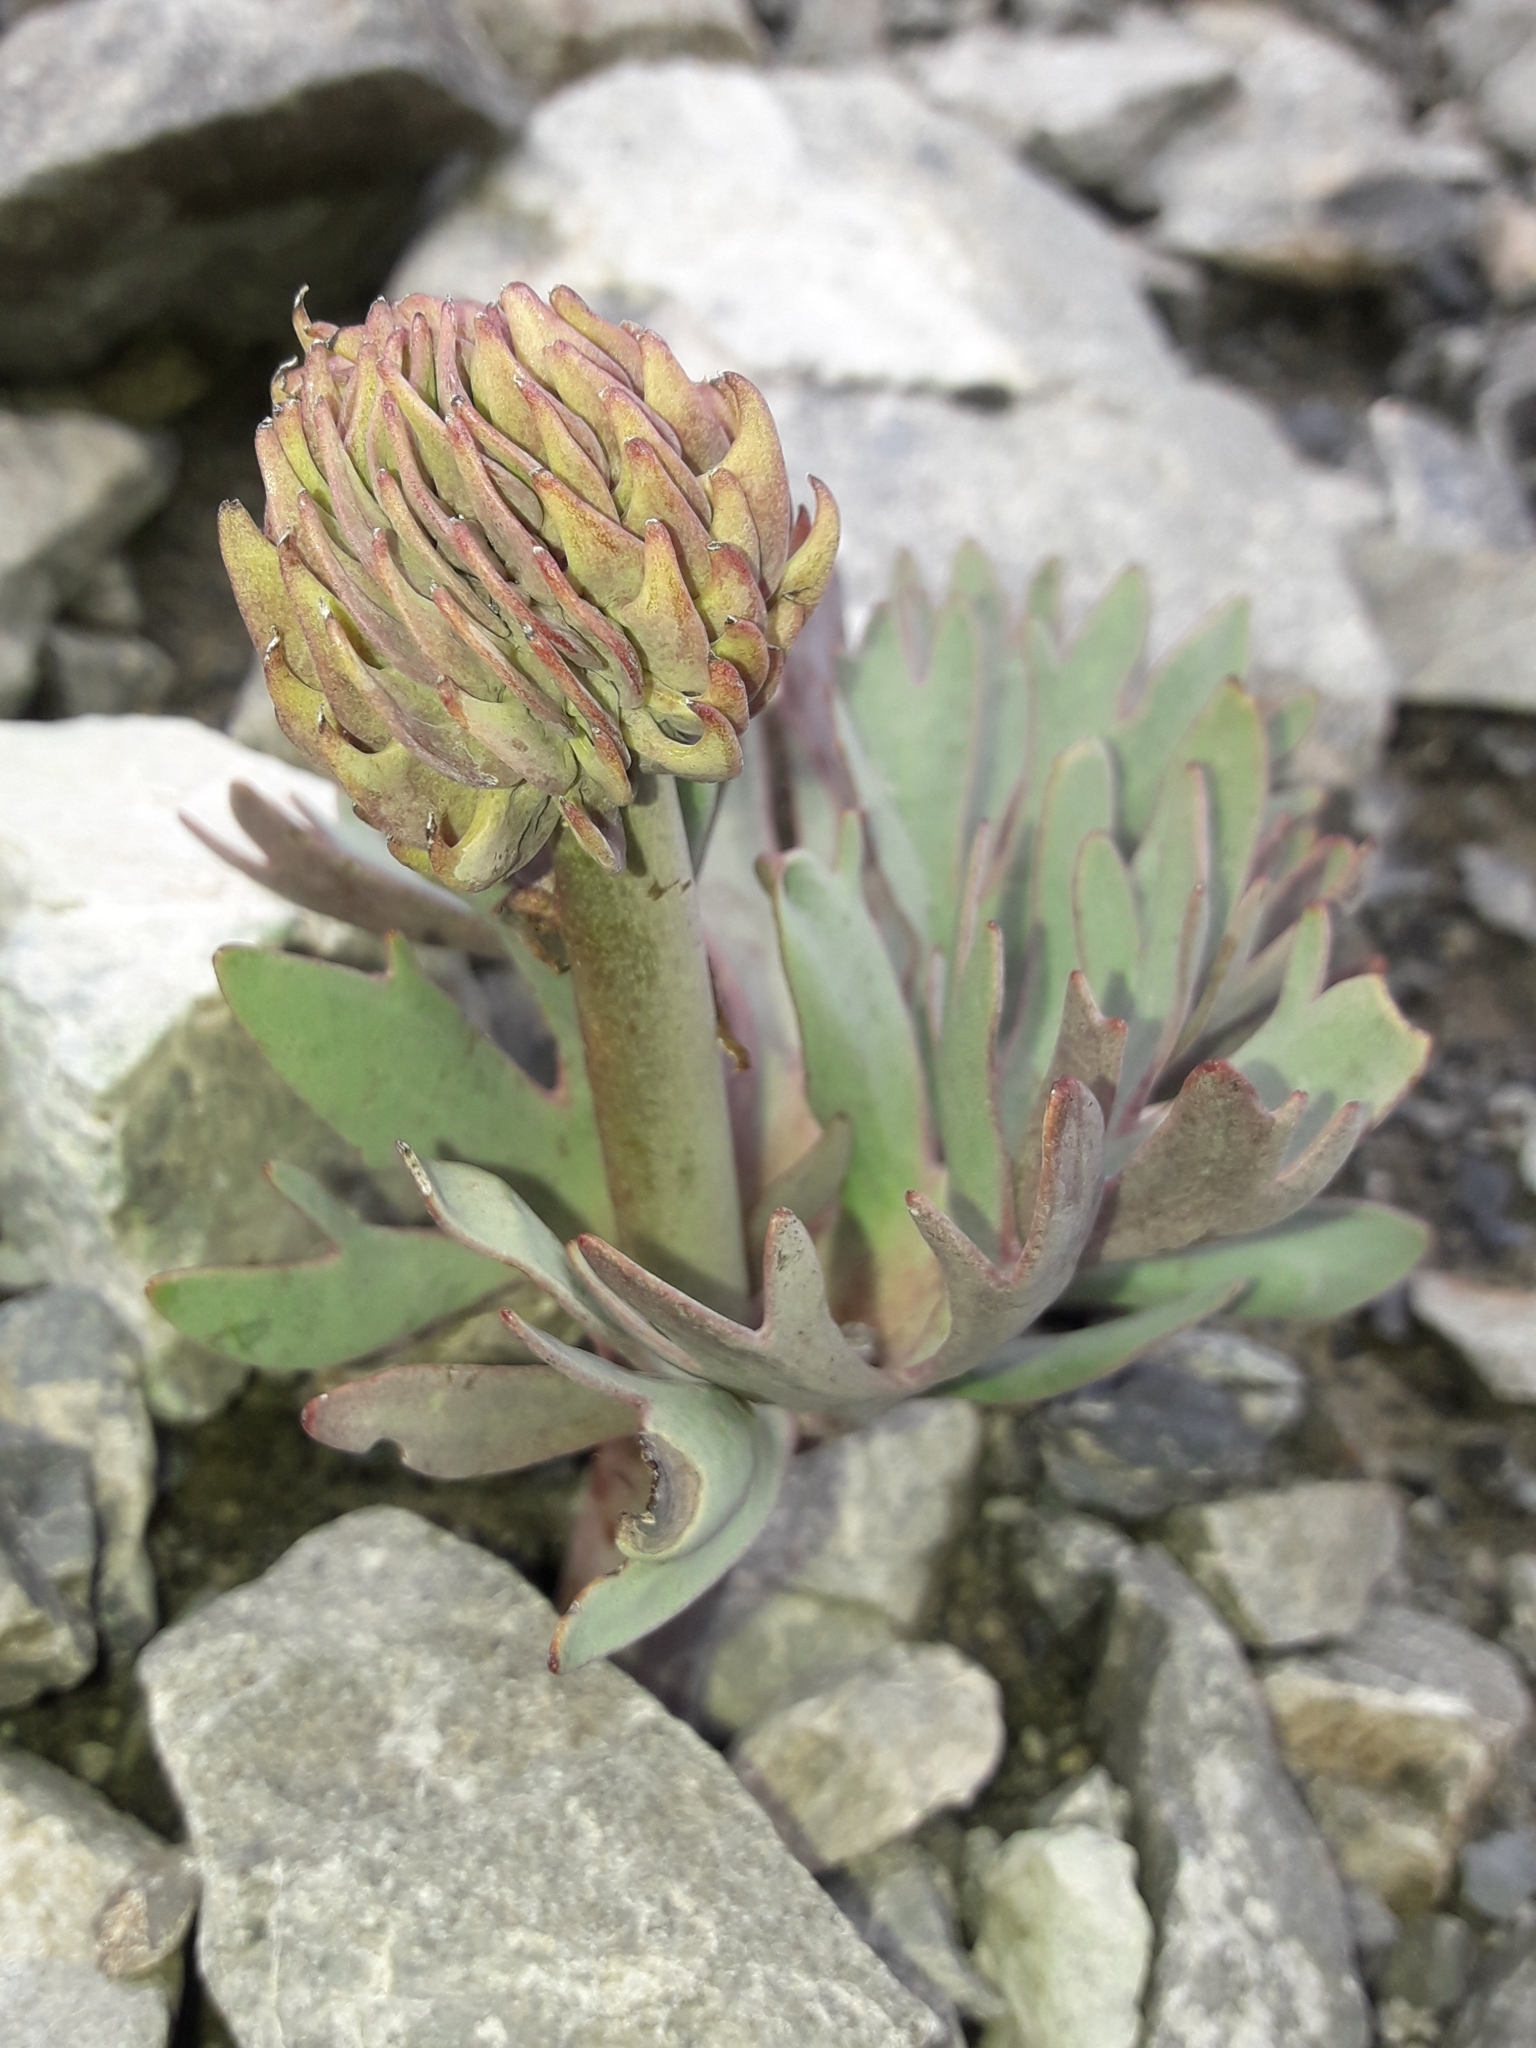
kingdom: Plantae
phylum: Tracheophyta
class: Magnoliopsida
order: Ranunculales
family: Ranunculaceae
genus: Ranunculus
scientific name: Ranunculus haastii
